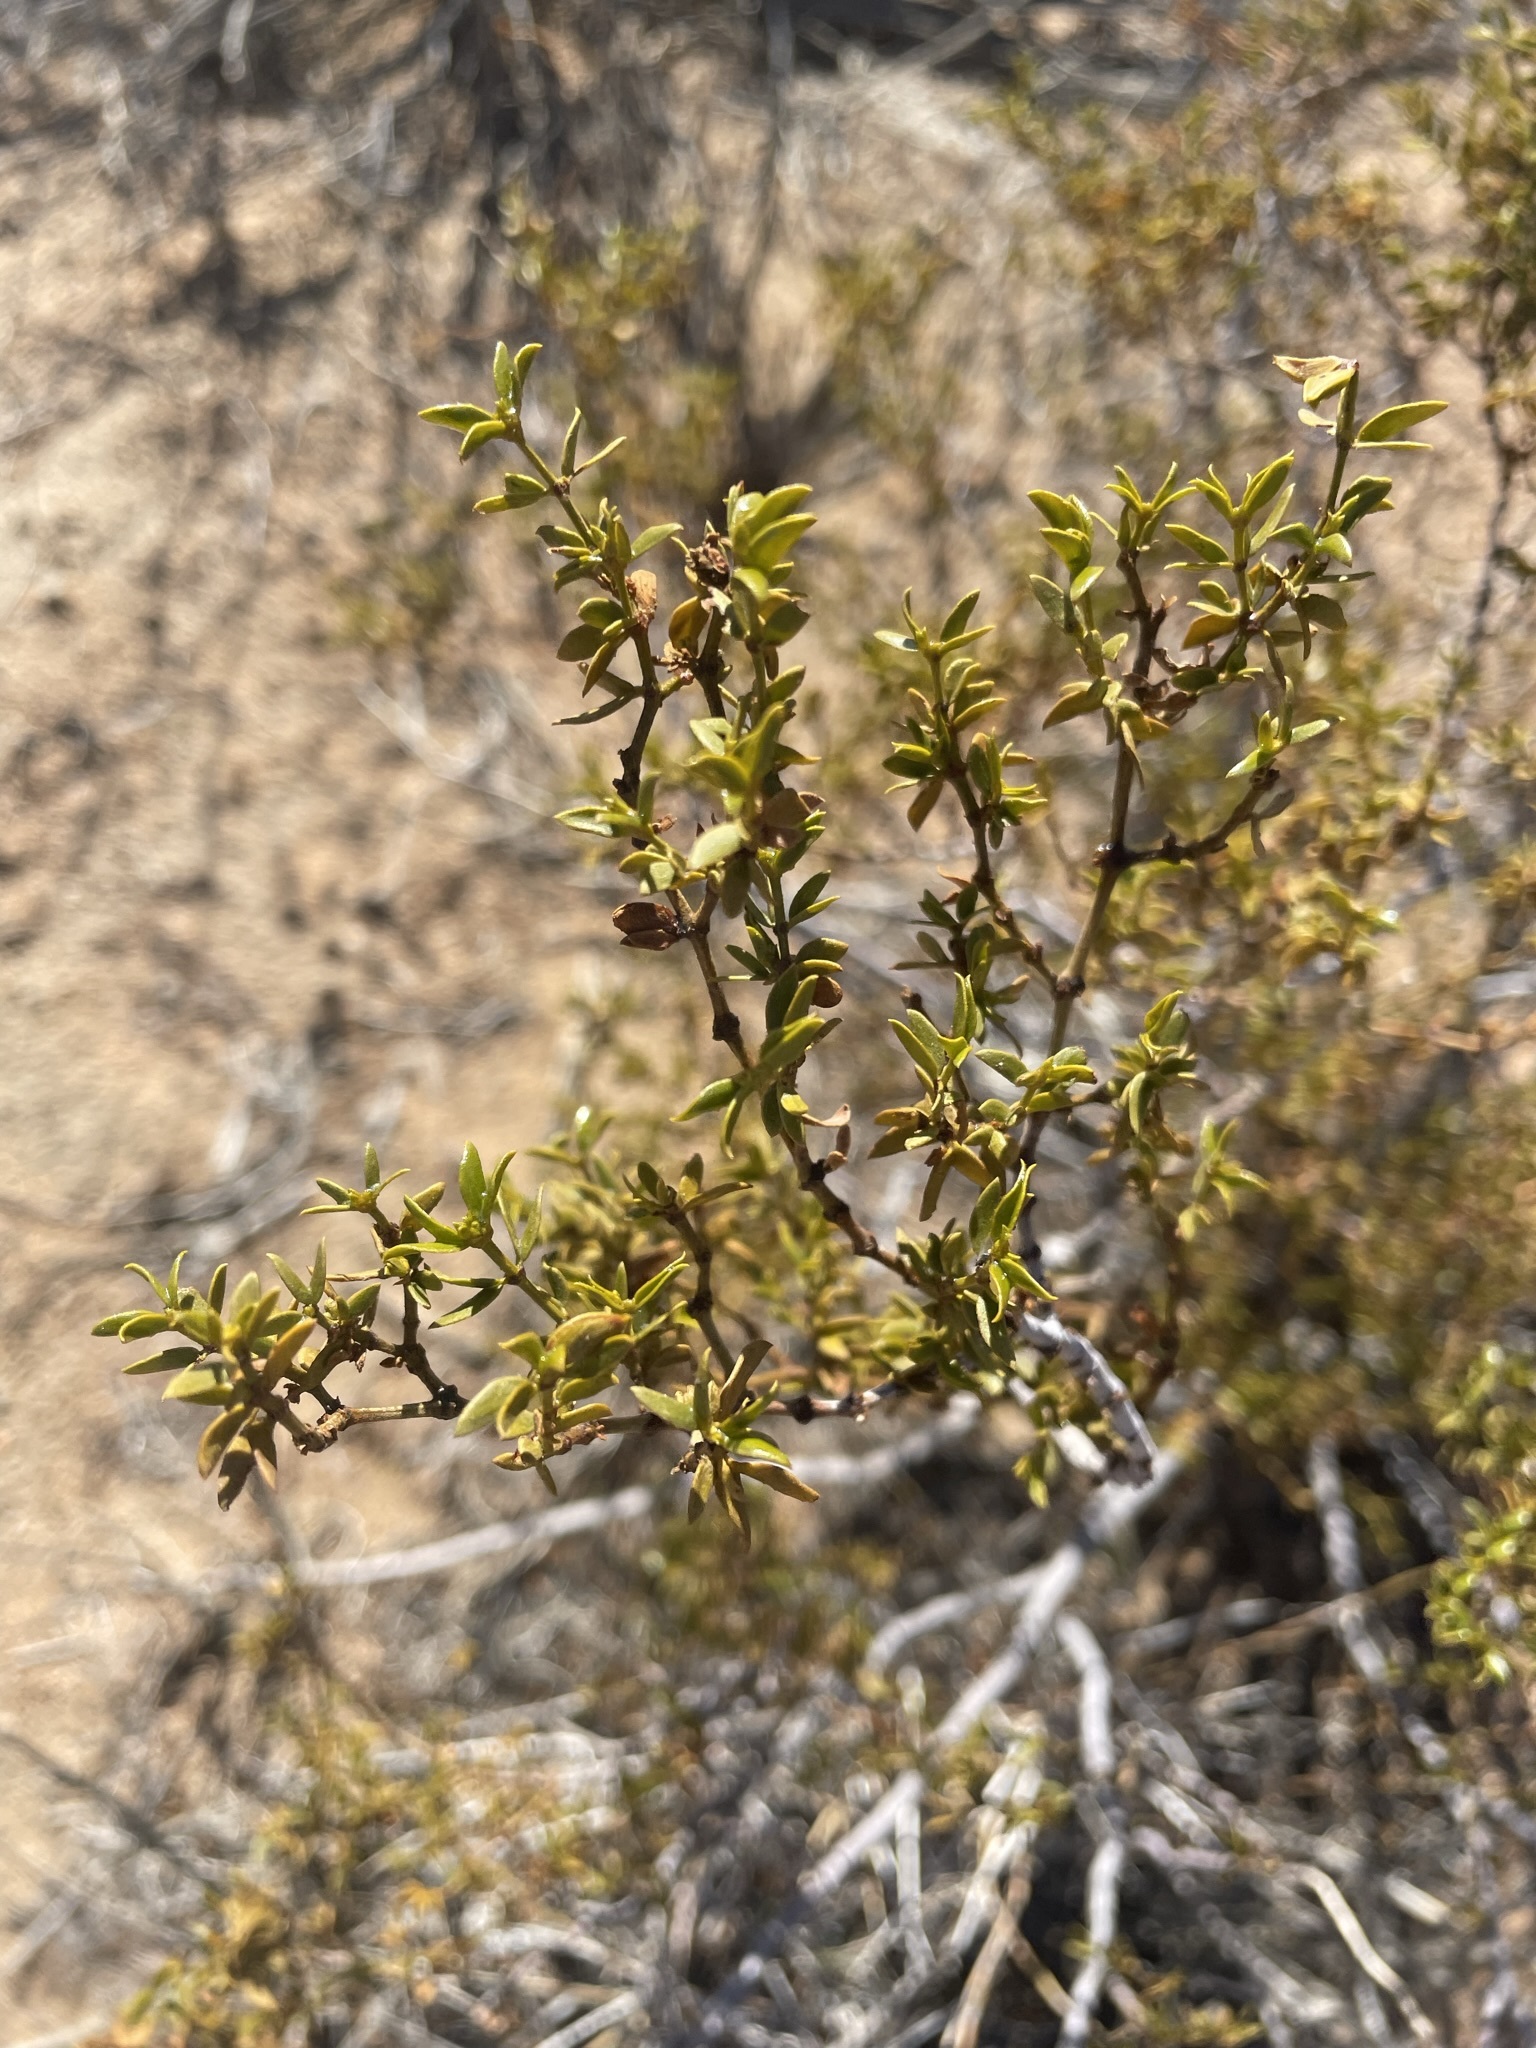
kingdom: Plantae
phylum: Tracheophyta
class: Magnoliopsida
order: Zygophyllales
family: Zygophyllaceae
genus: Larrea
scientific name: Larrea tridentata
